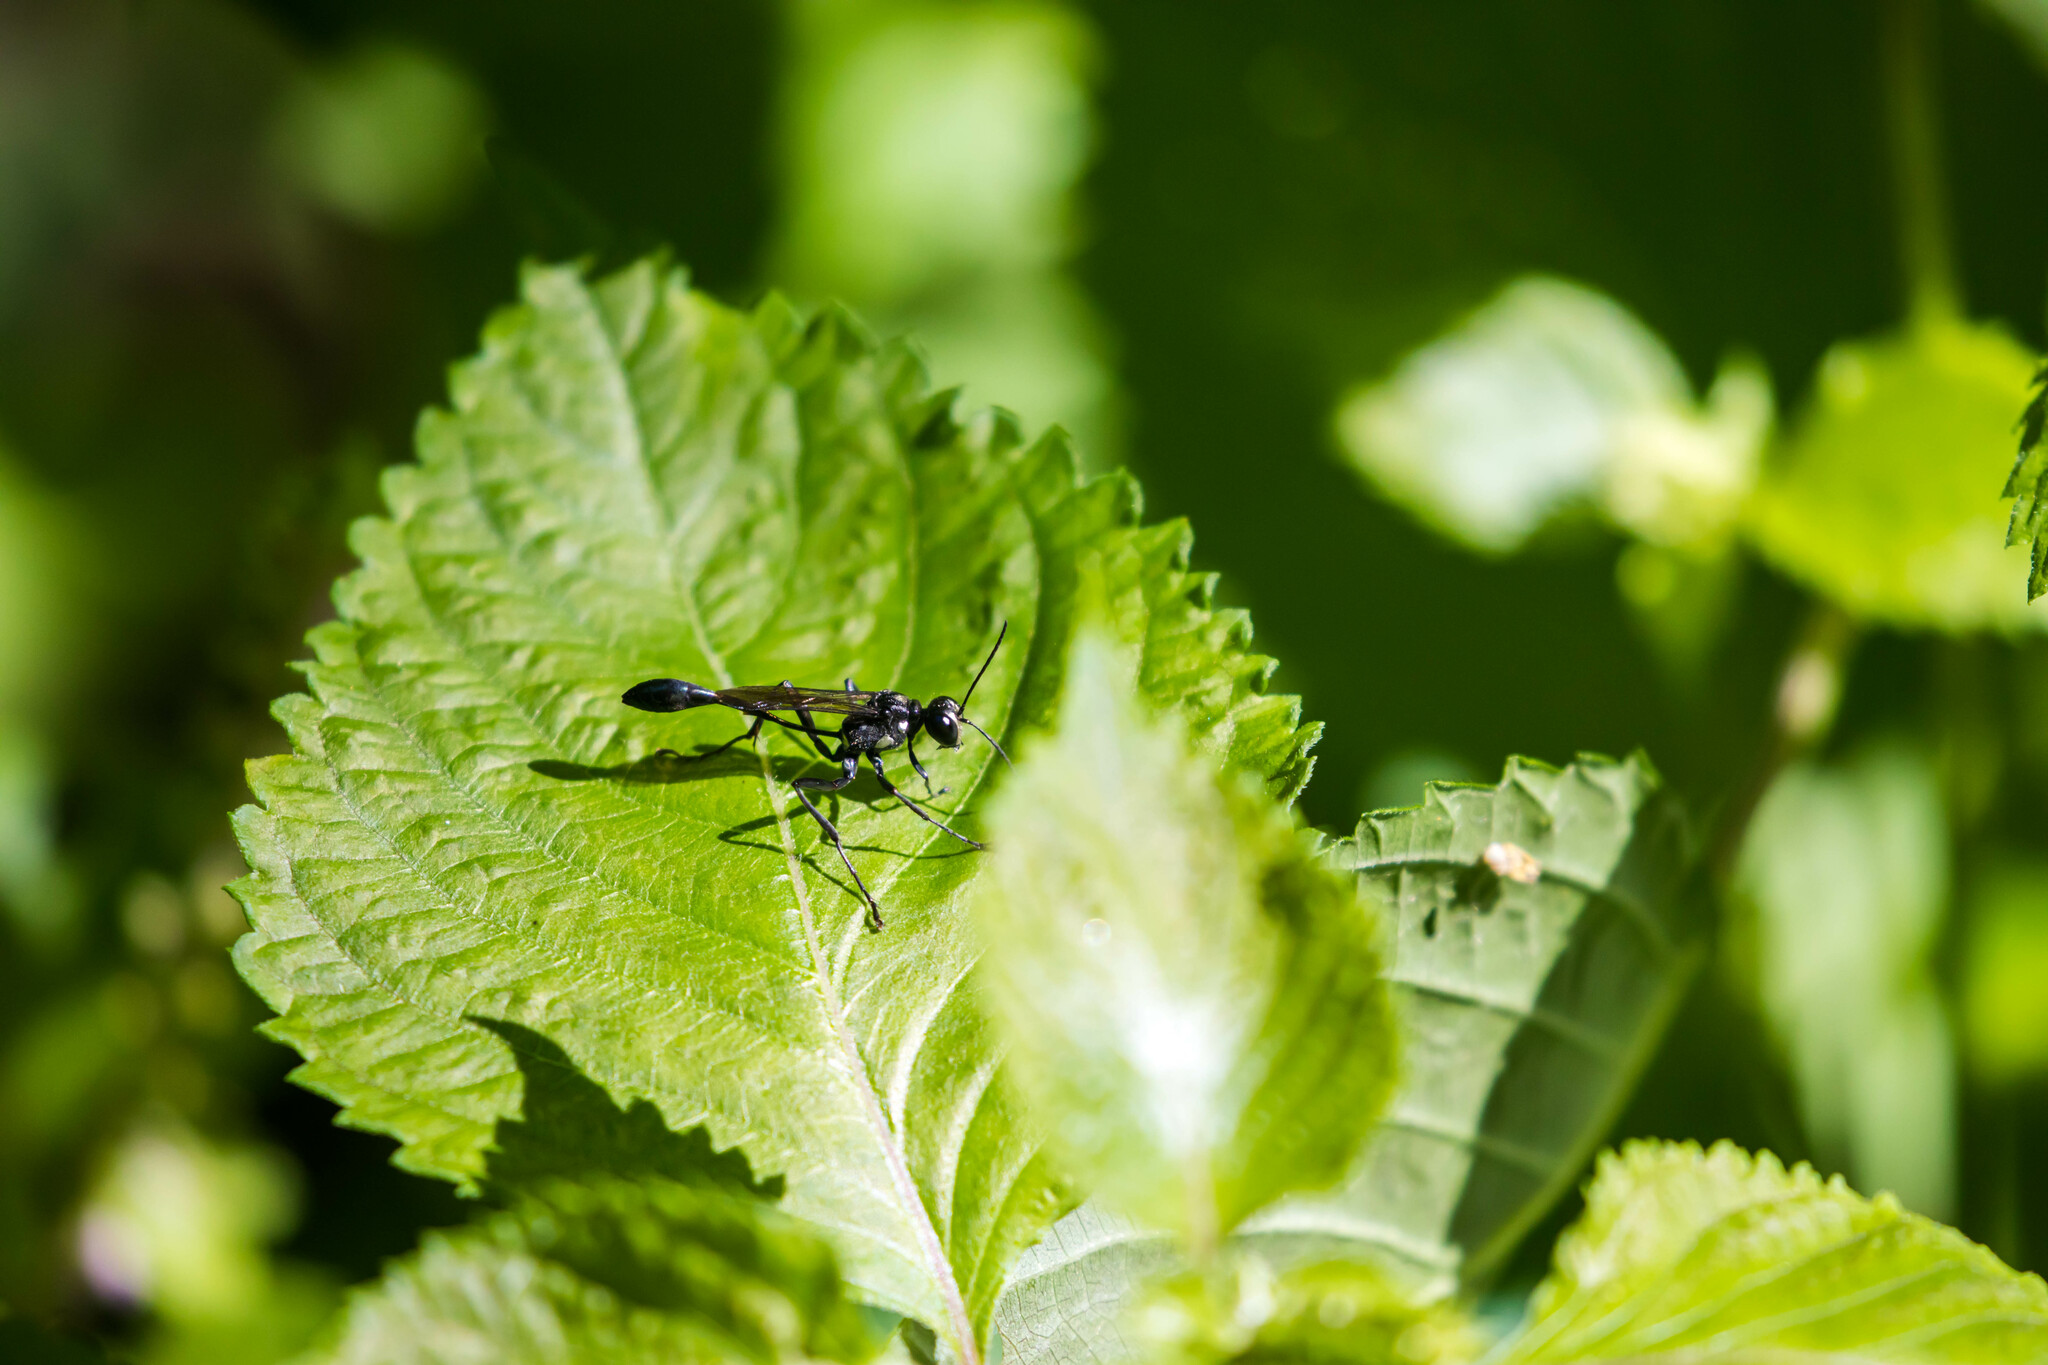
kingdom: Animalia
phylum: Arthropoda
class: Insecta
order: Hymenoptera
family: Sphecidae
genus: Eremnophila
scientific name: Eremnophila aureonotata
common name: Gold-marked thread-waisted wasp
